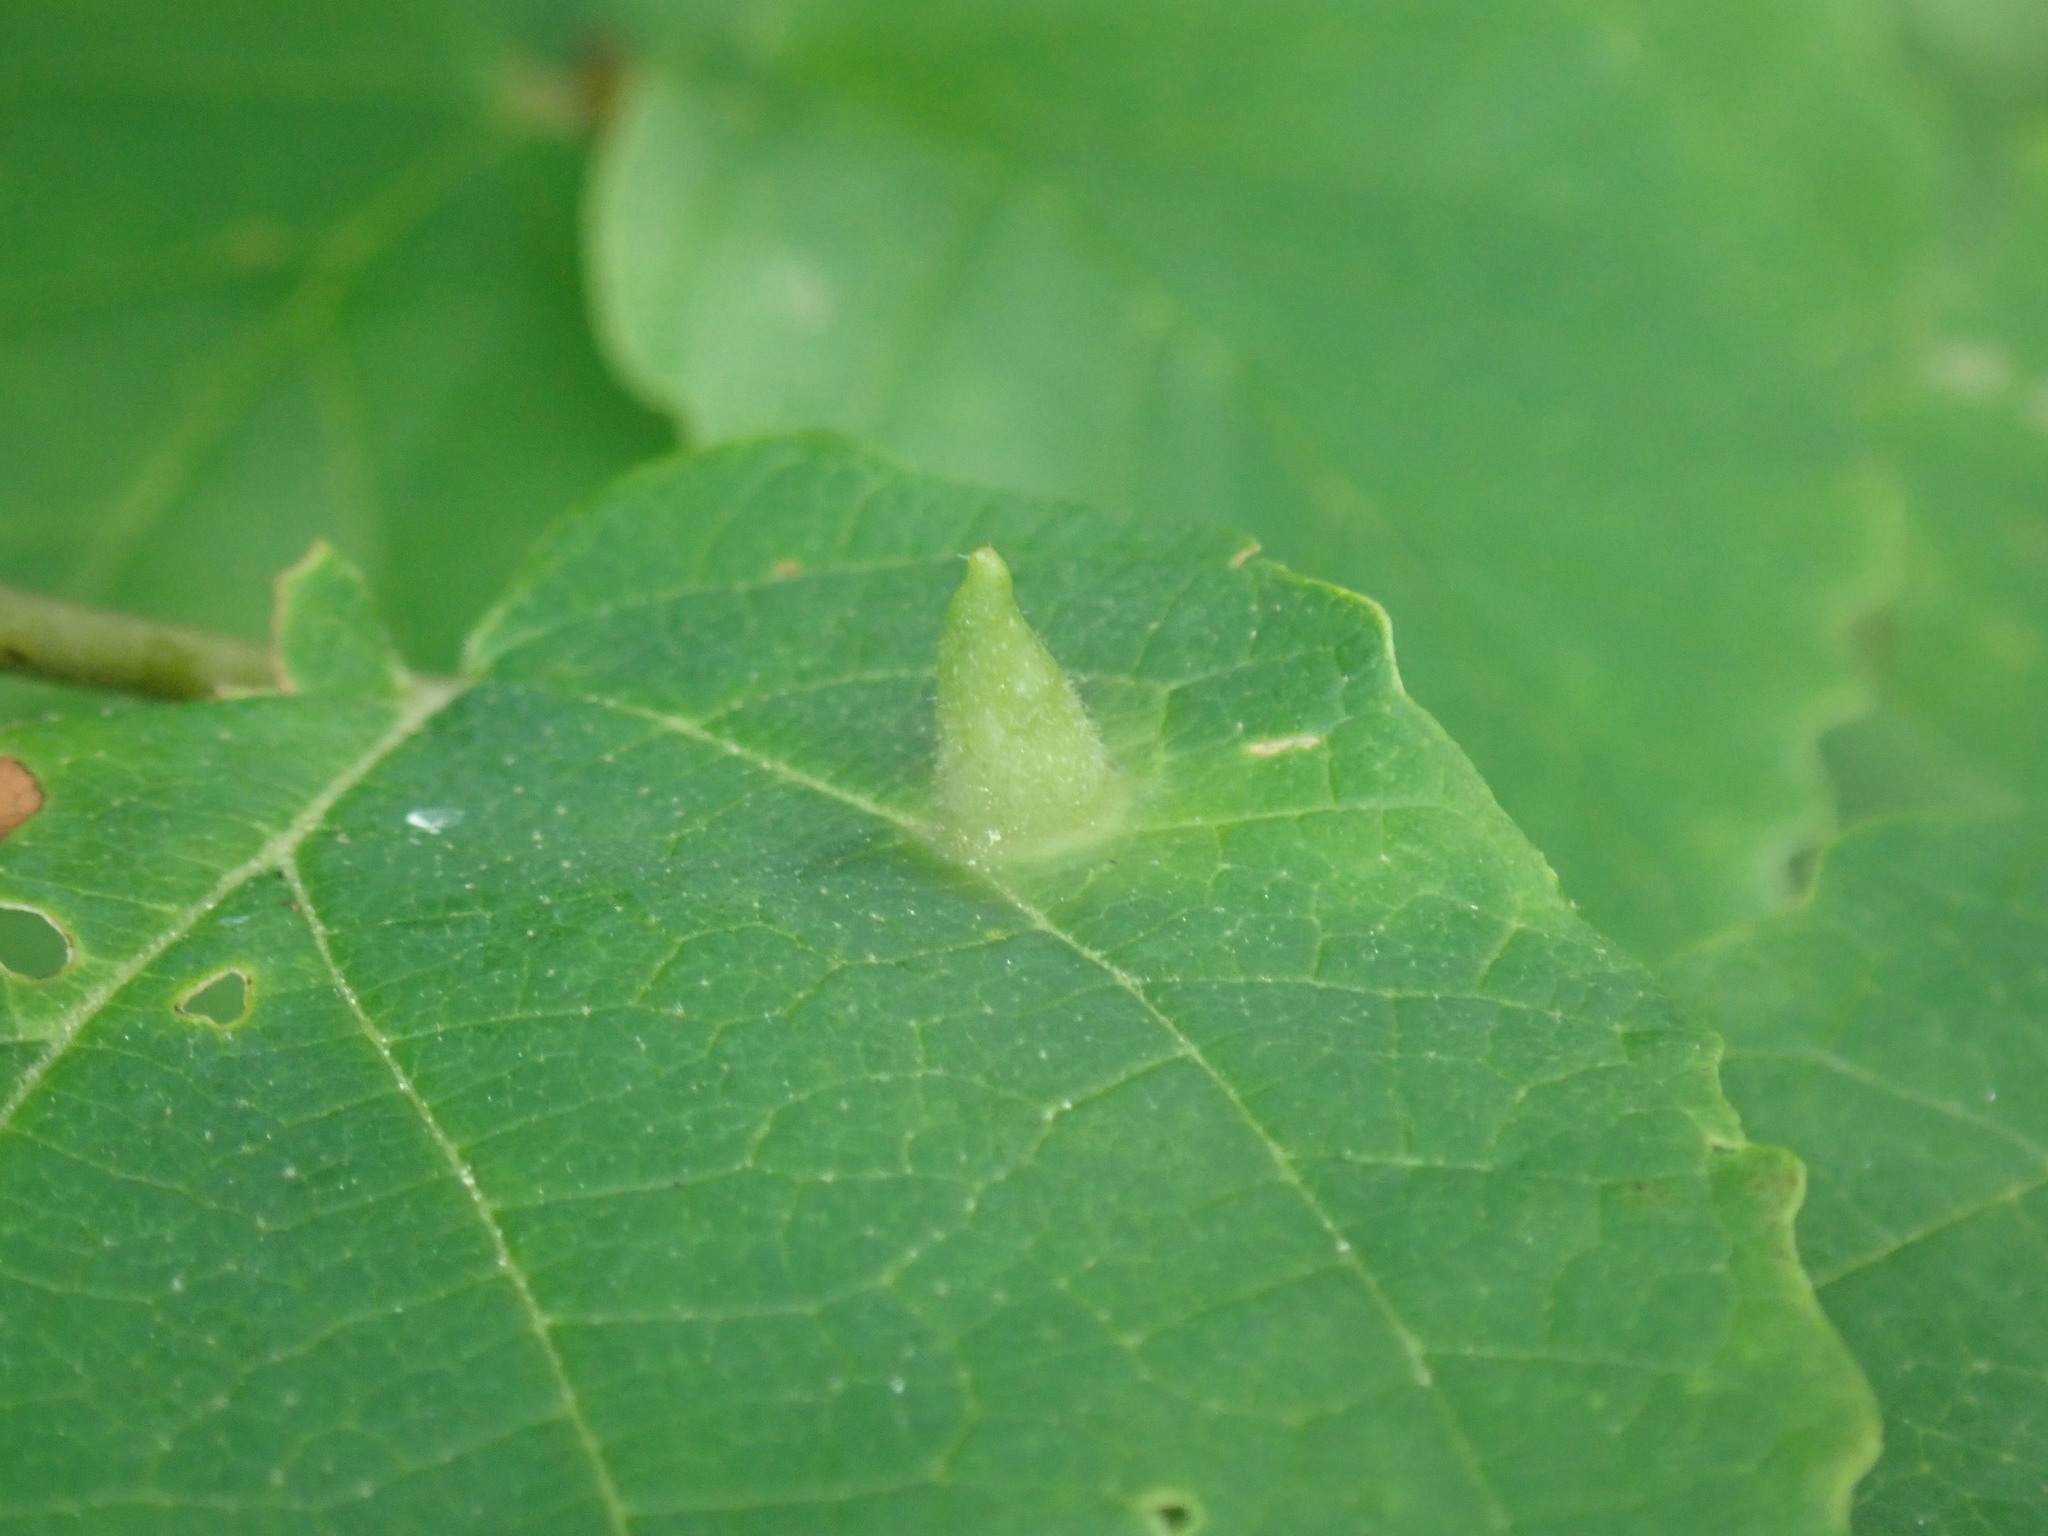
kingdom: Animalia
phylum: Arthropoda
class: Insecta
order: Hemiptera
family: Aphididae
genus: Hormaphis
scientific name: Hormaphis hamamelidis
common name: Witch-hazel cone gall aphid
